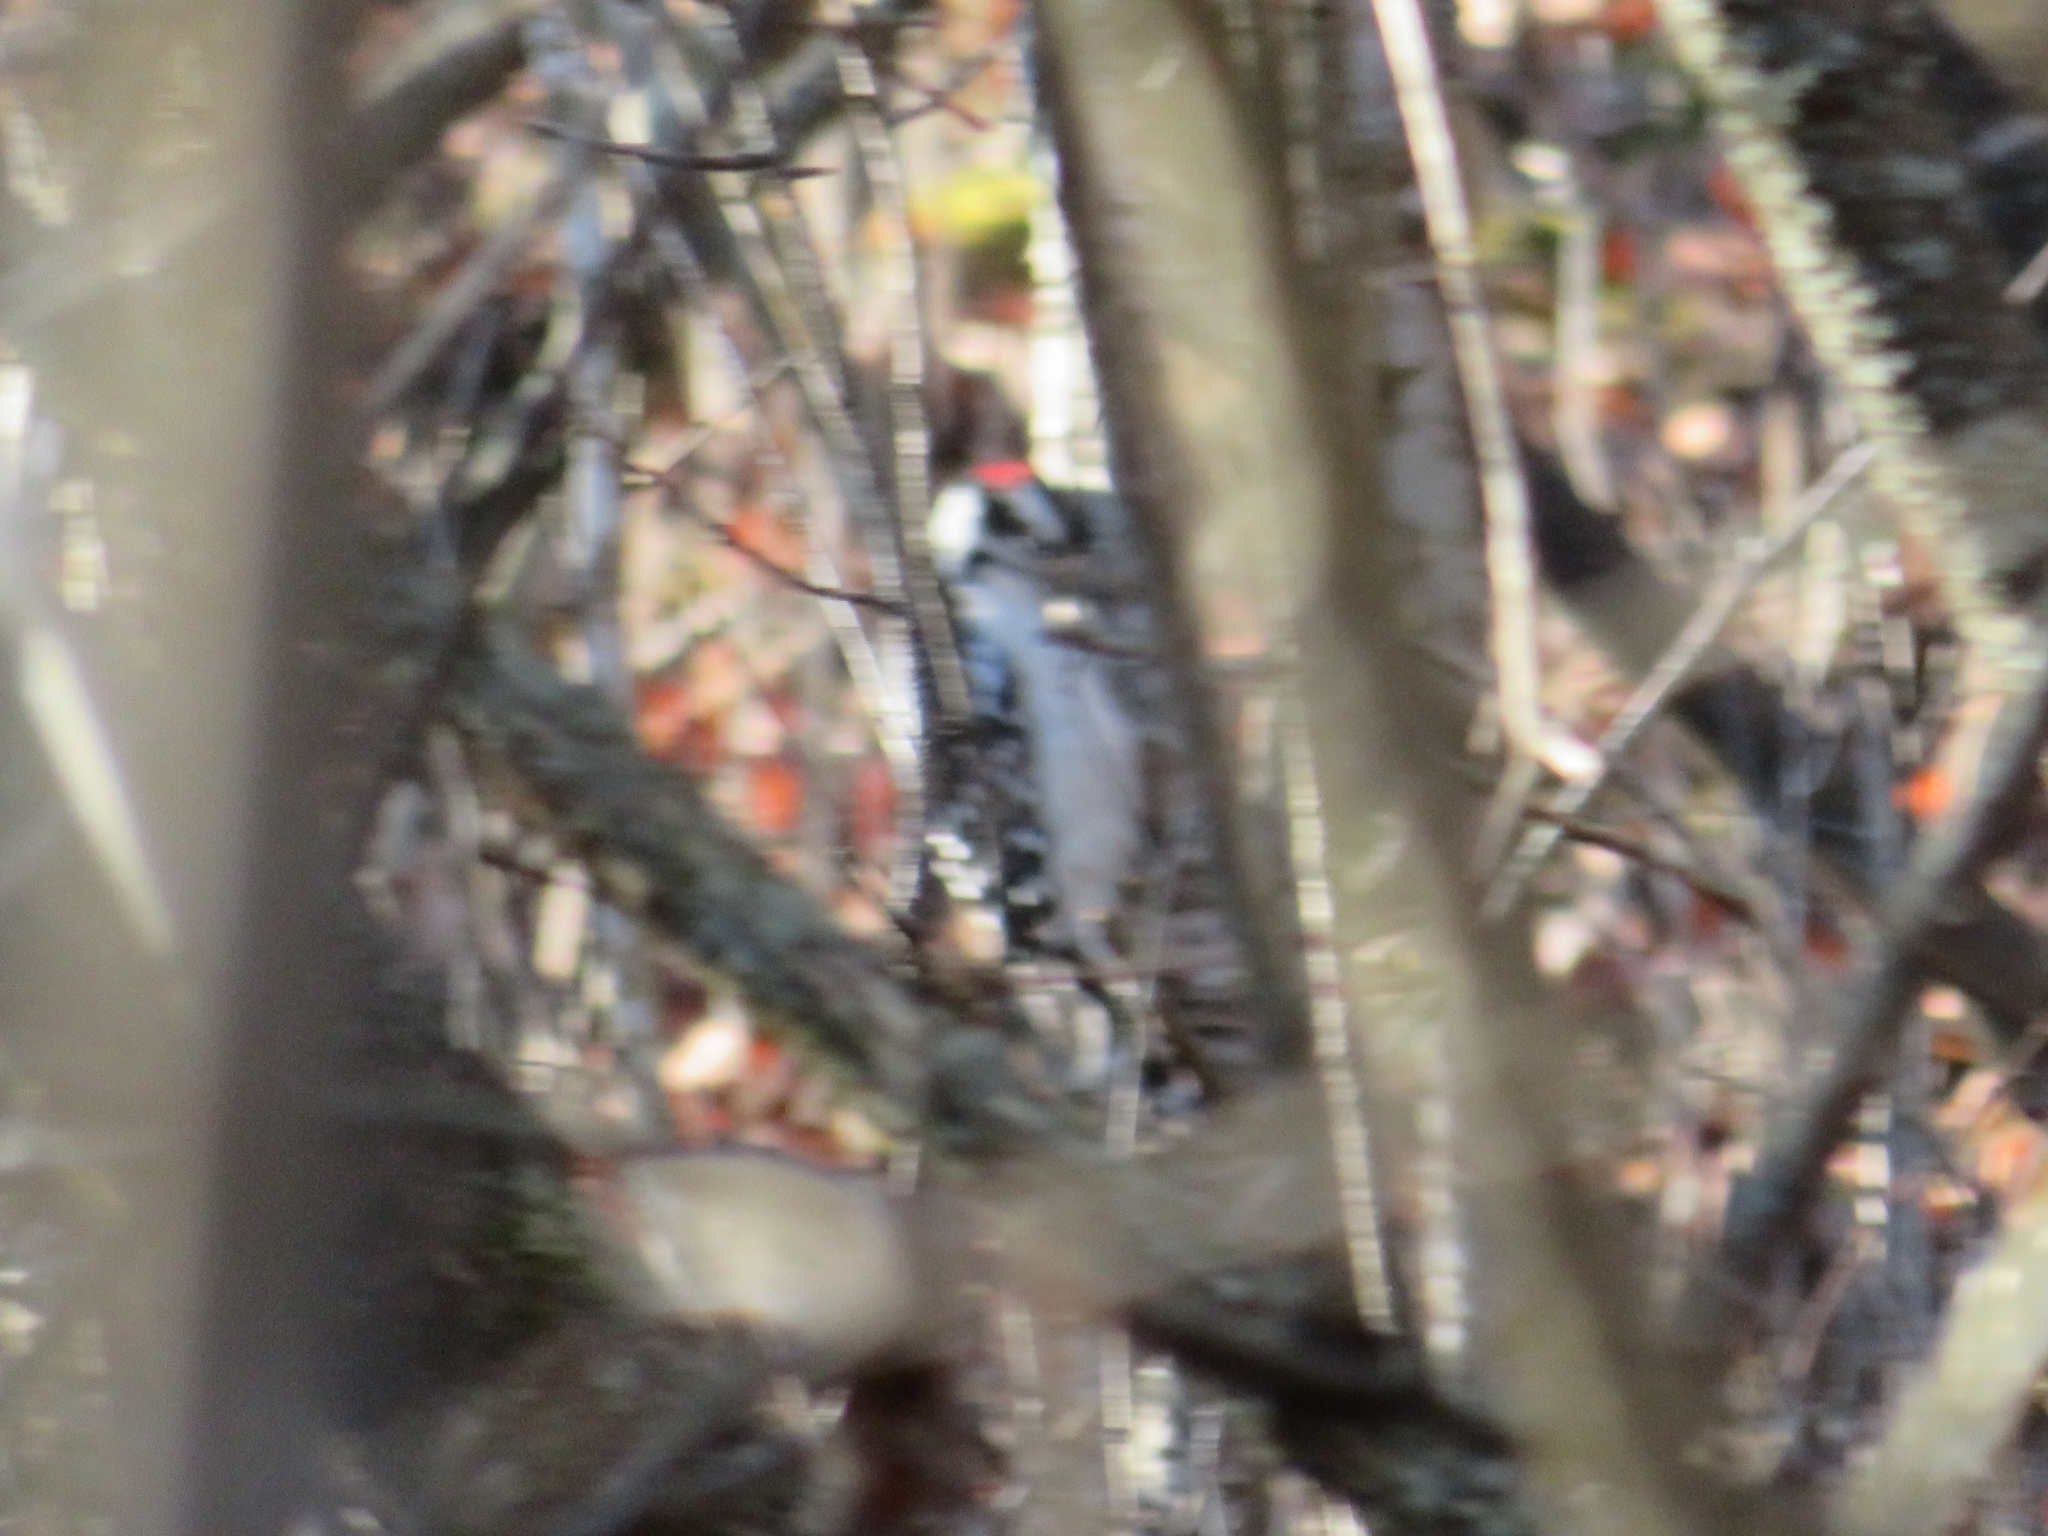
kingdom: Animalia
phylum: Chordata
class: Aves
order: Piciformes
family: Picidae
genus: Dryobates
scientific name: Dryobates pubescens
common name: Downy woodpecker
